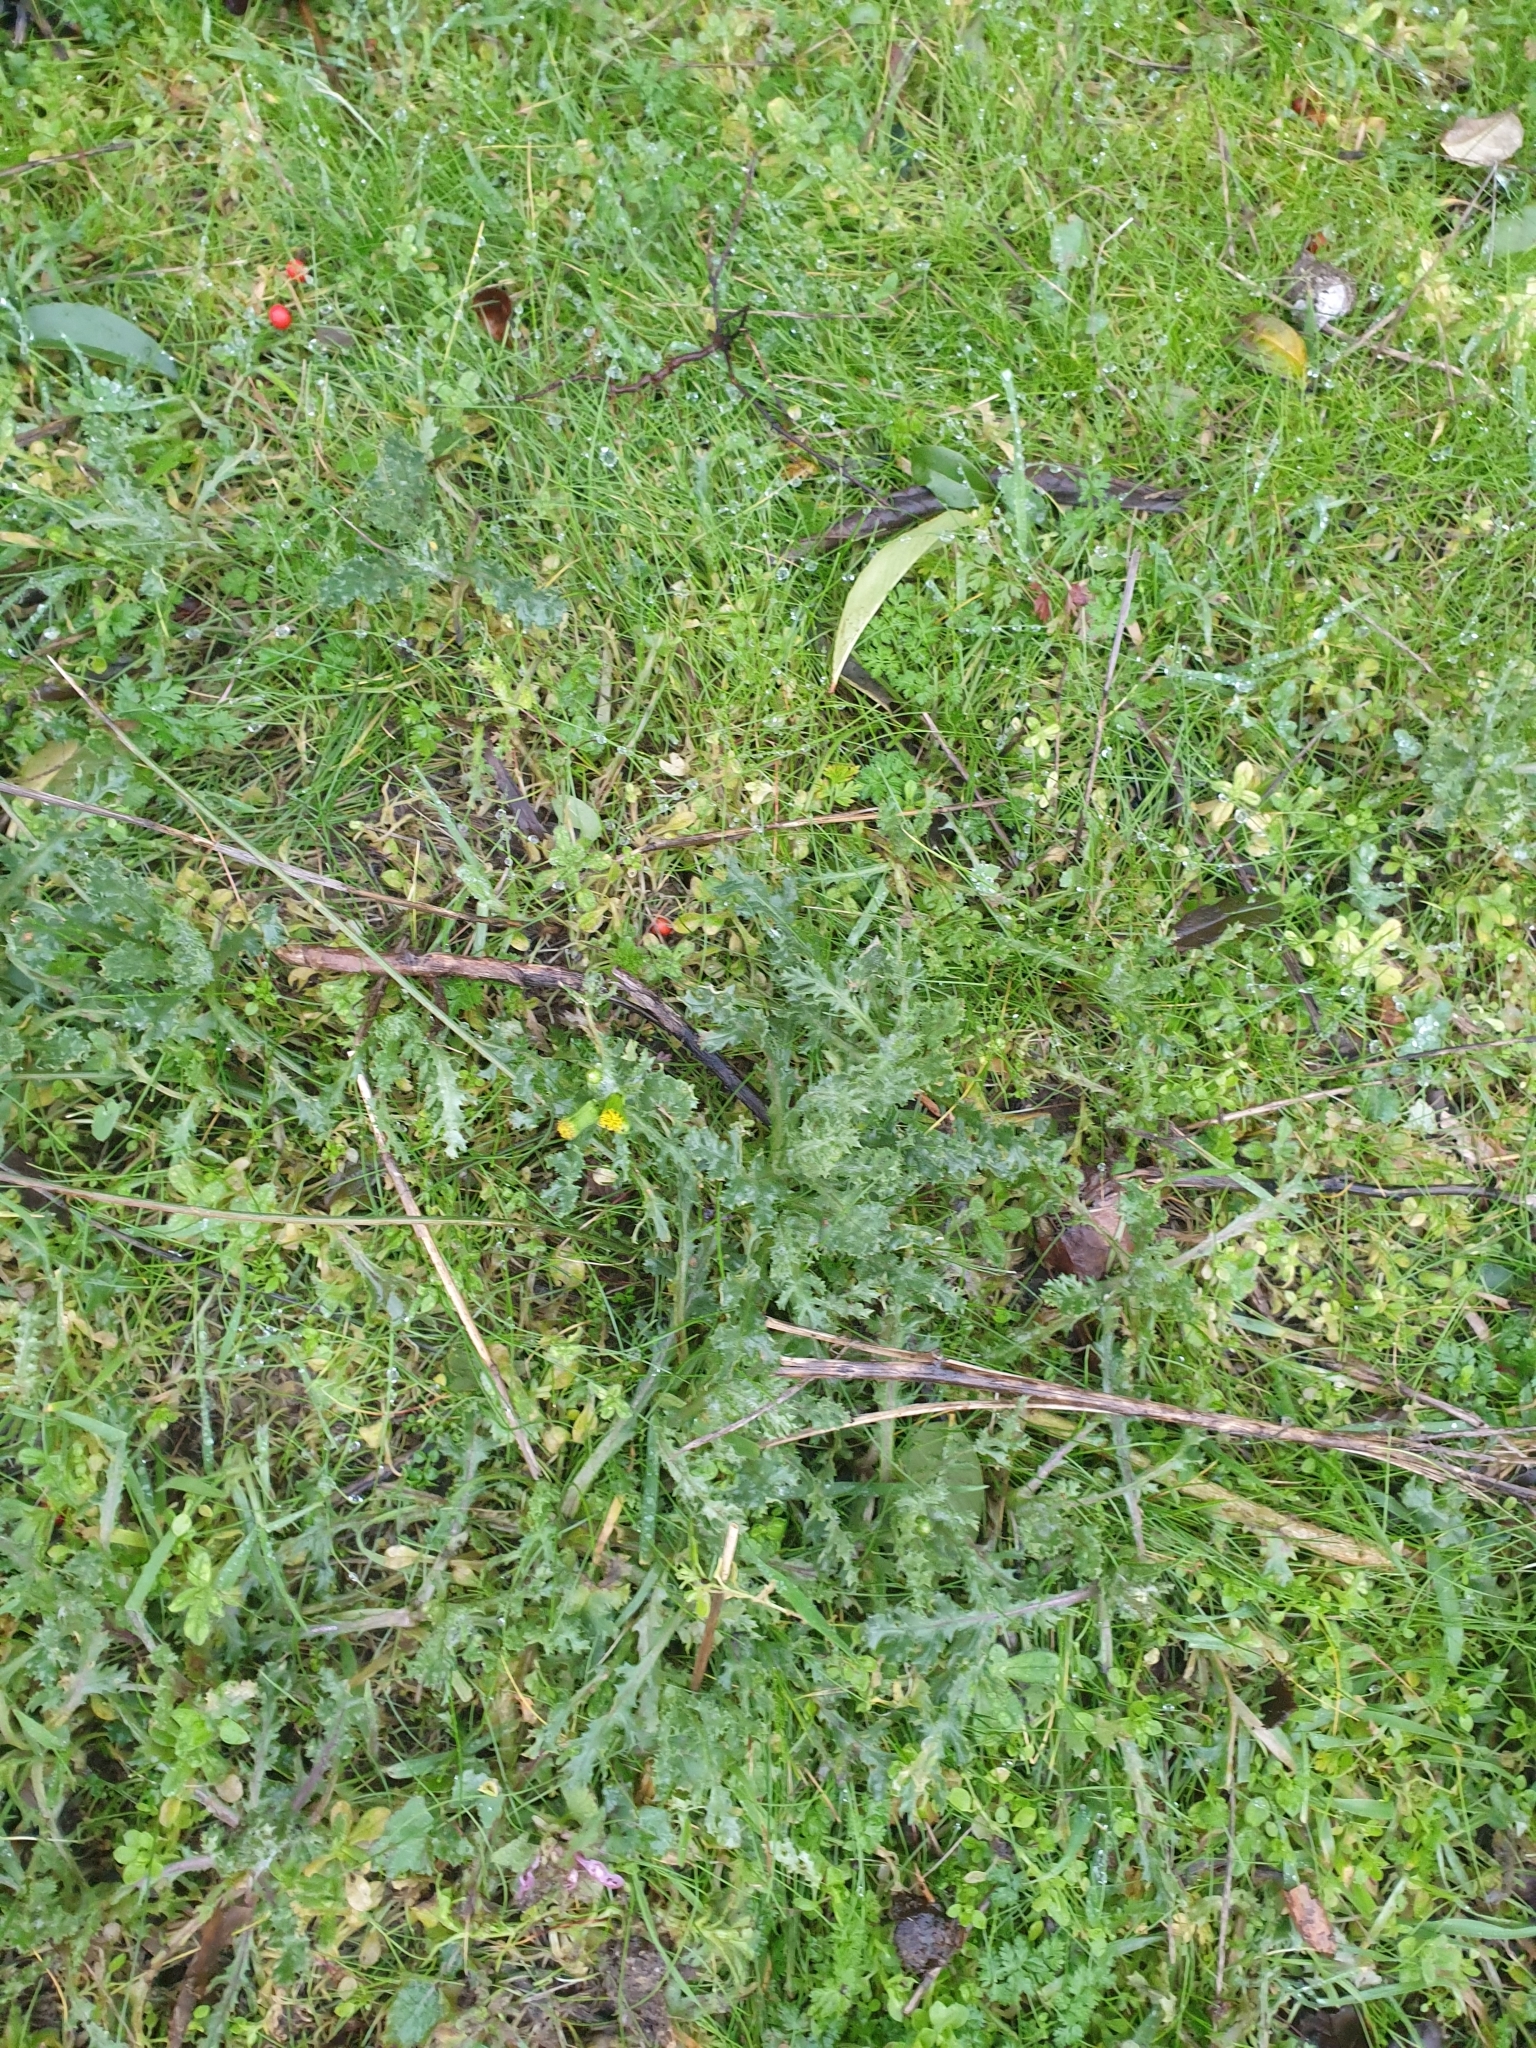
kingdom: Plantae
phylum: Tracheophyta
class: Magnoliopsida
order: Asterales
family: Asteraceae
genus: Senecio
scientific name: Senecio vulgaris
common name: Old-man-in-the-spring
